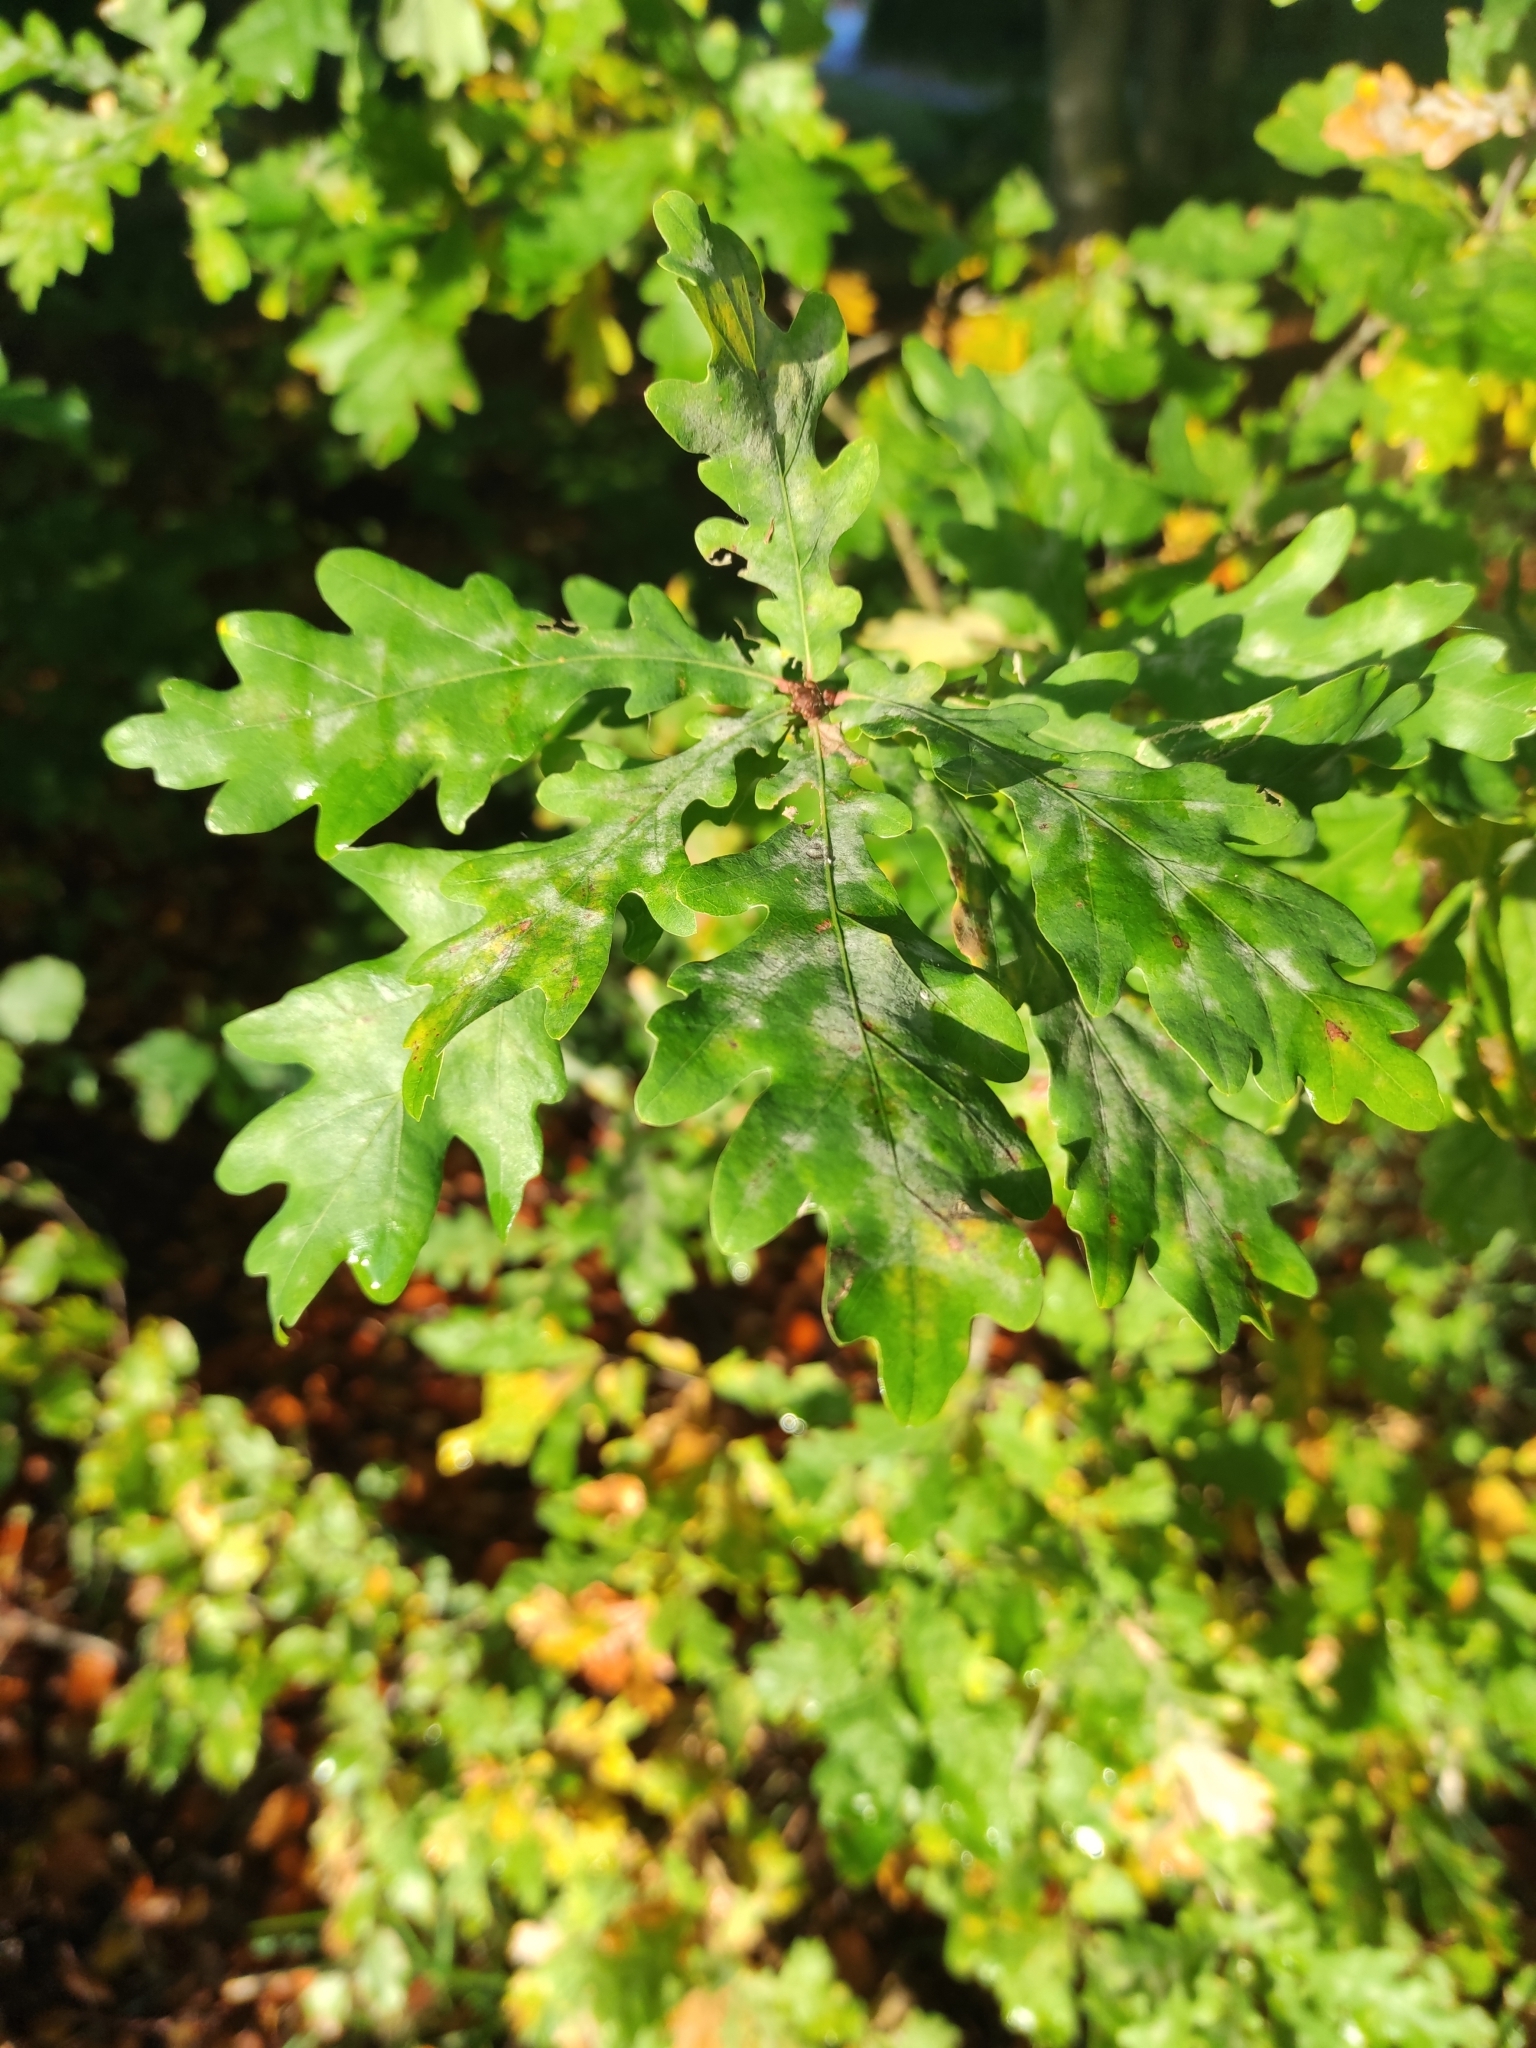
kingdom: Plantae
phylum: Tracheophyta
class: Magnoliopsida
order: Fagales
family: Fagaceae
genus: Quercus
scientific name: Quercus robur
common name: Pedunculate oak
